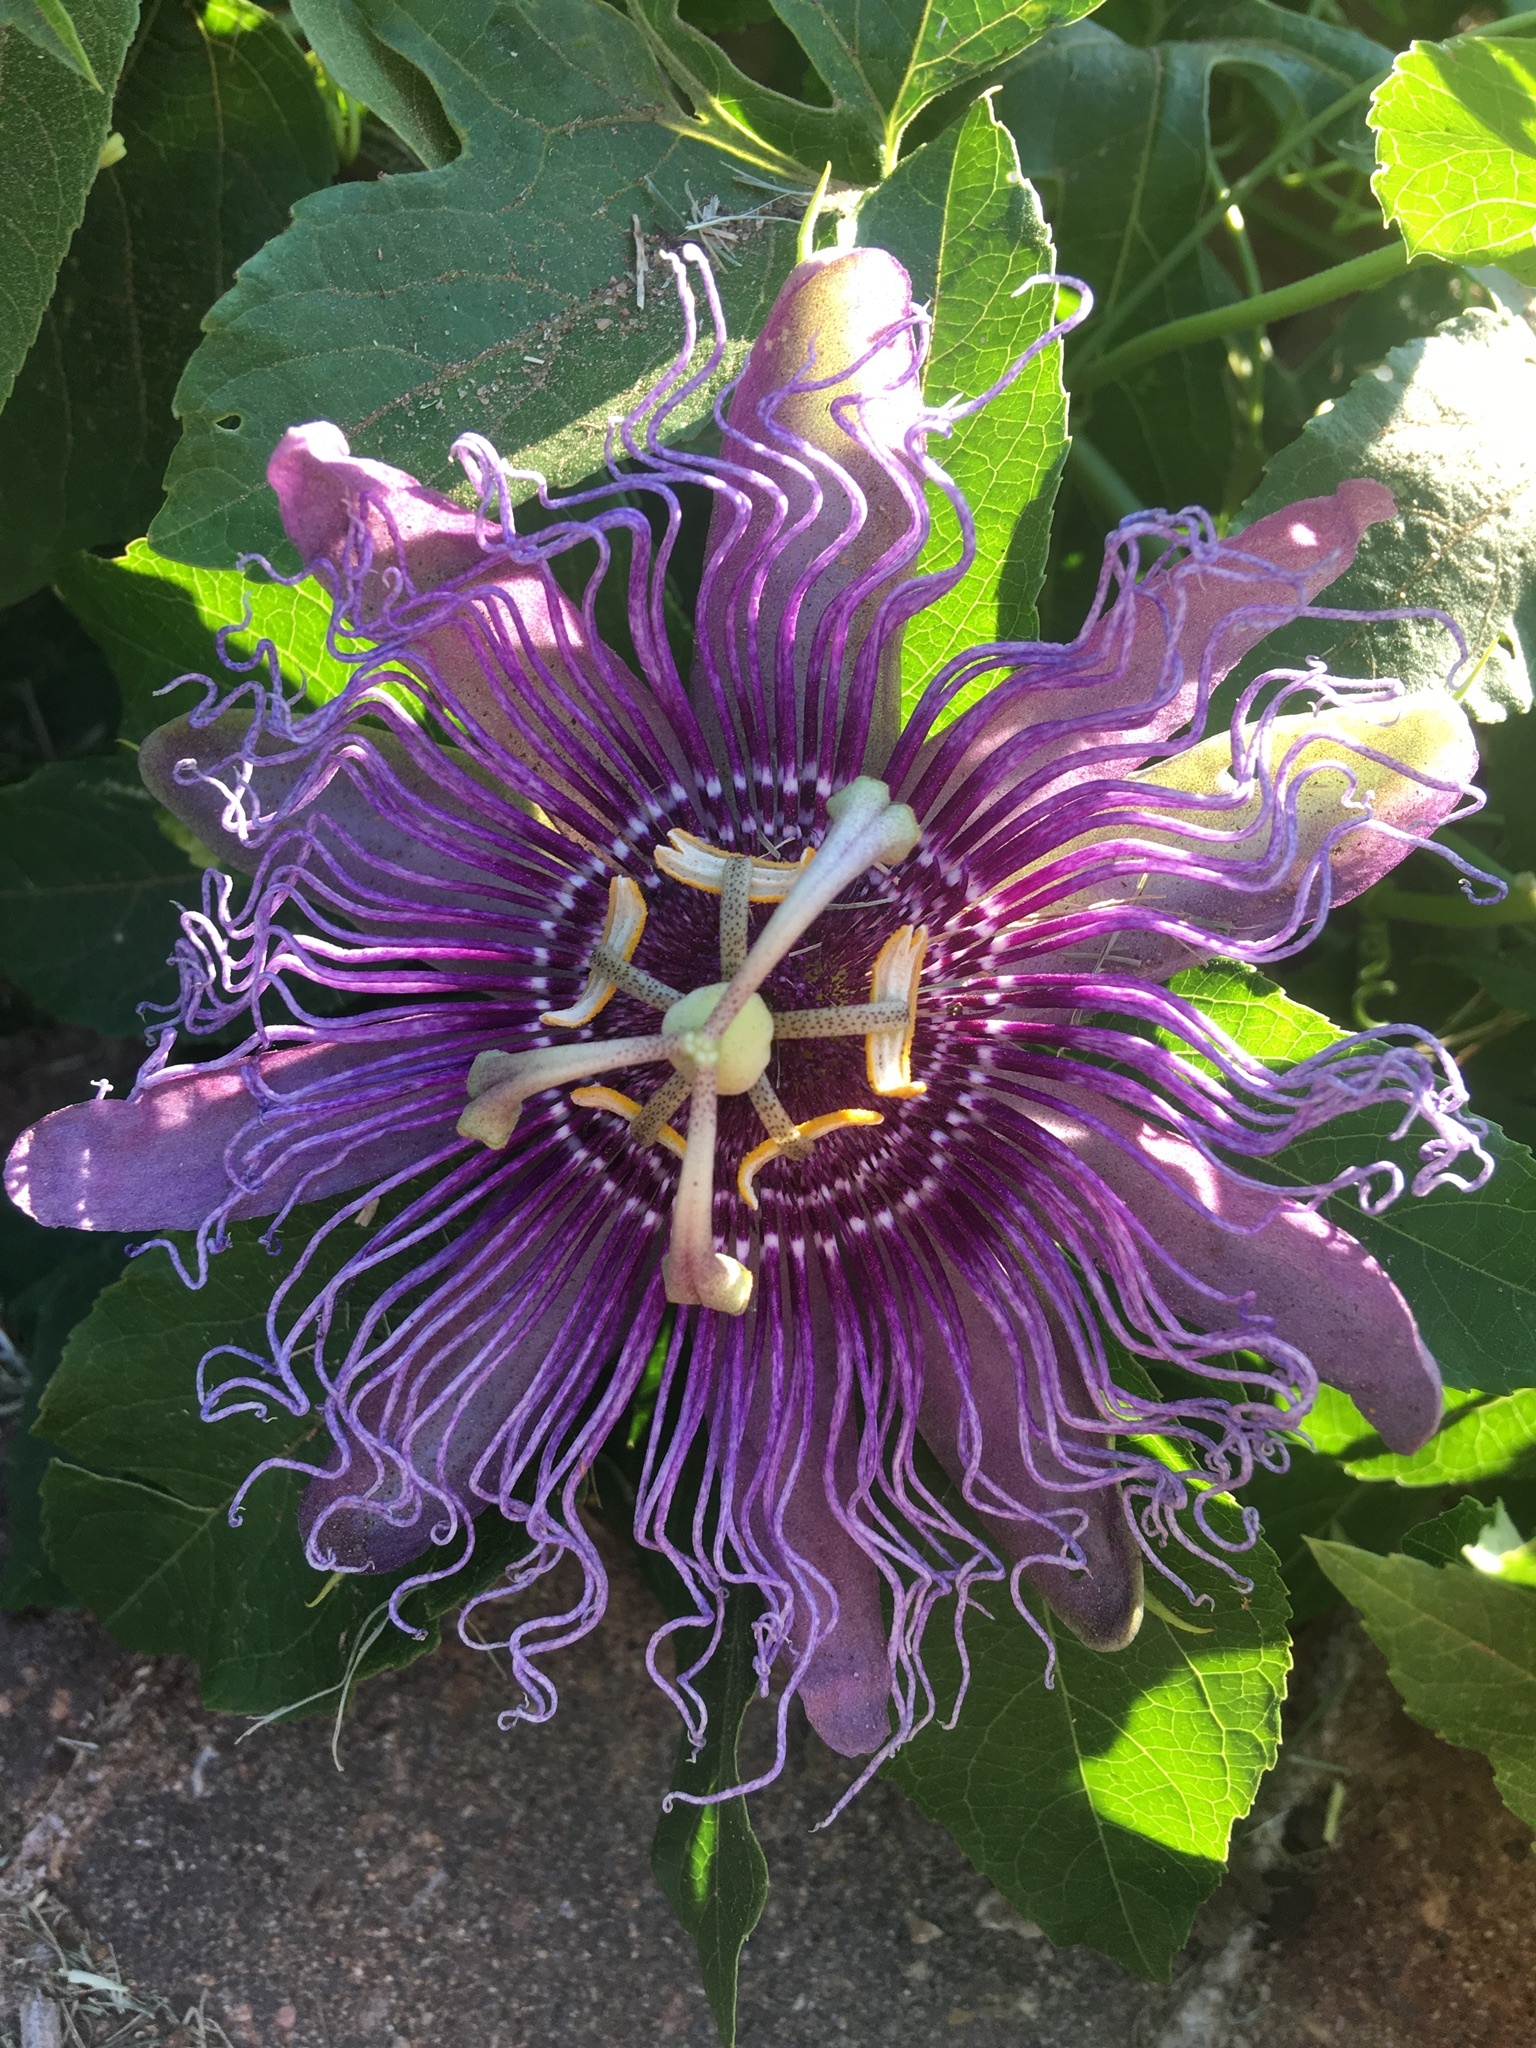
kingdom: Plantae
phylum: Tracheophyta
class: Magnoliopsida
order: Malpighiales
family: Passifloraceae
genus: Passiflora
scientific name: Passiflora
